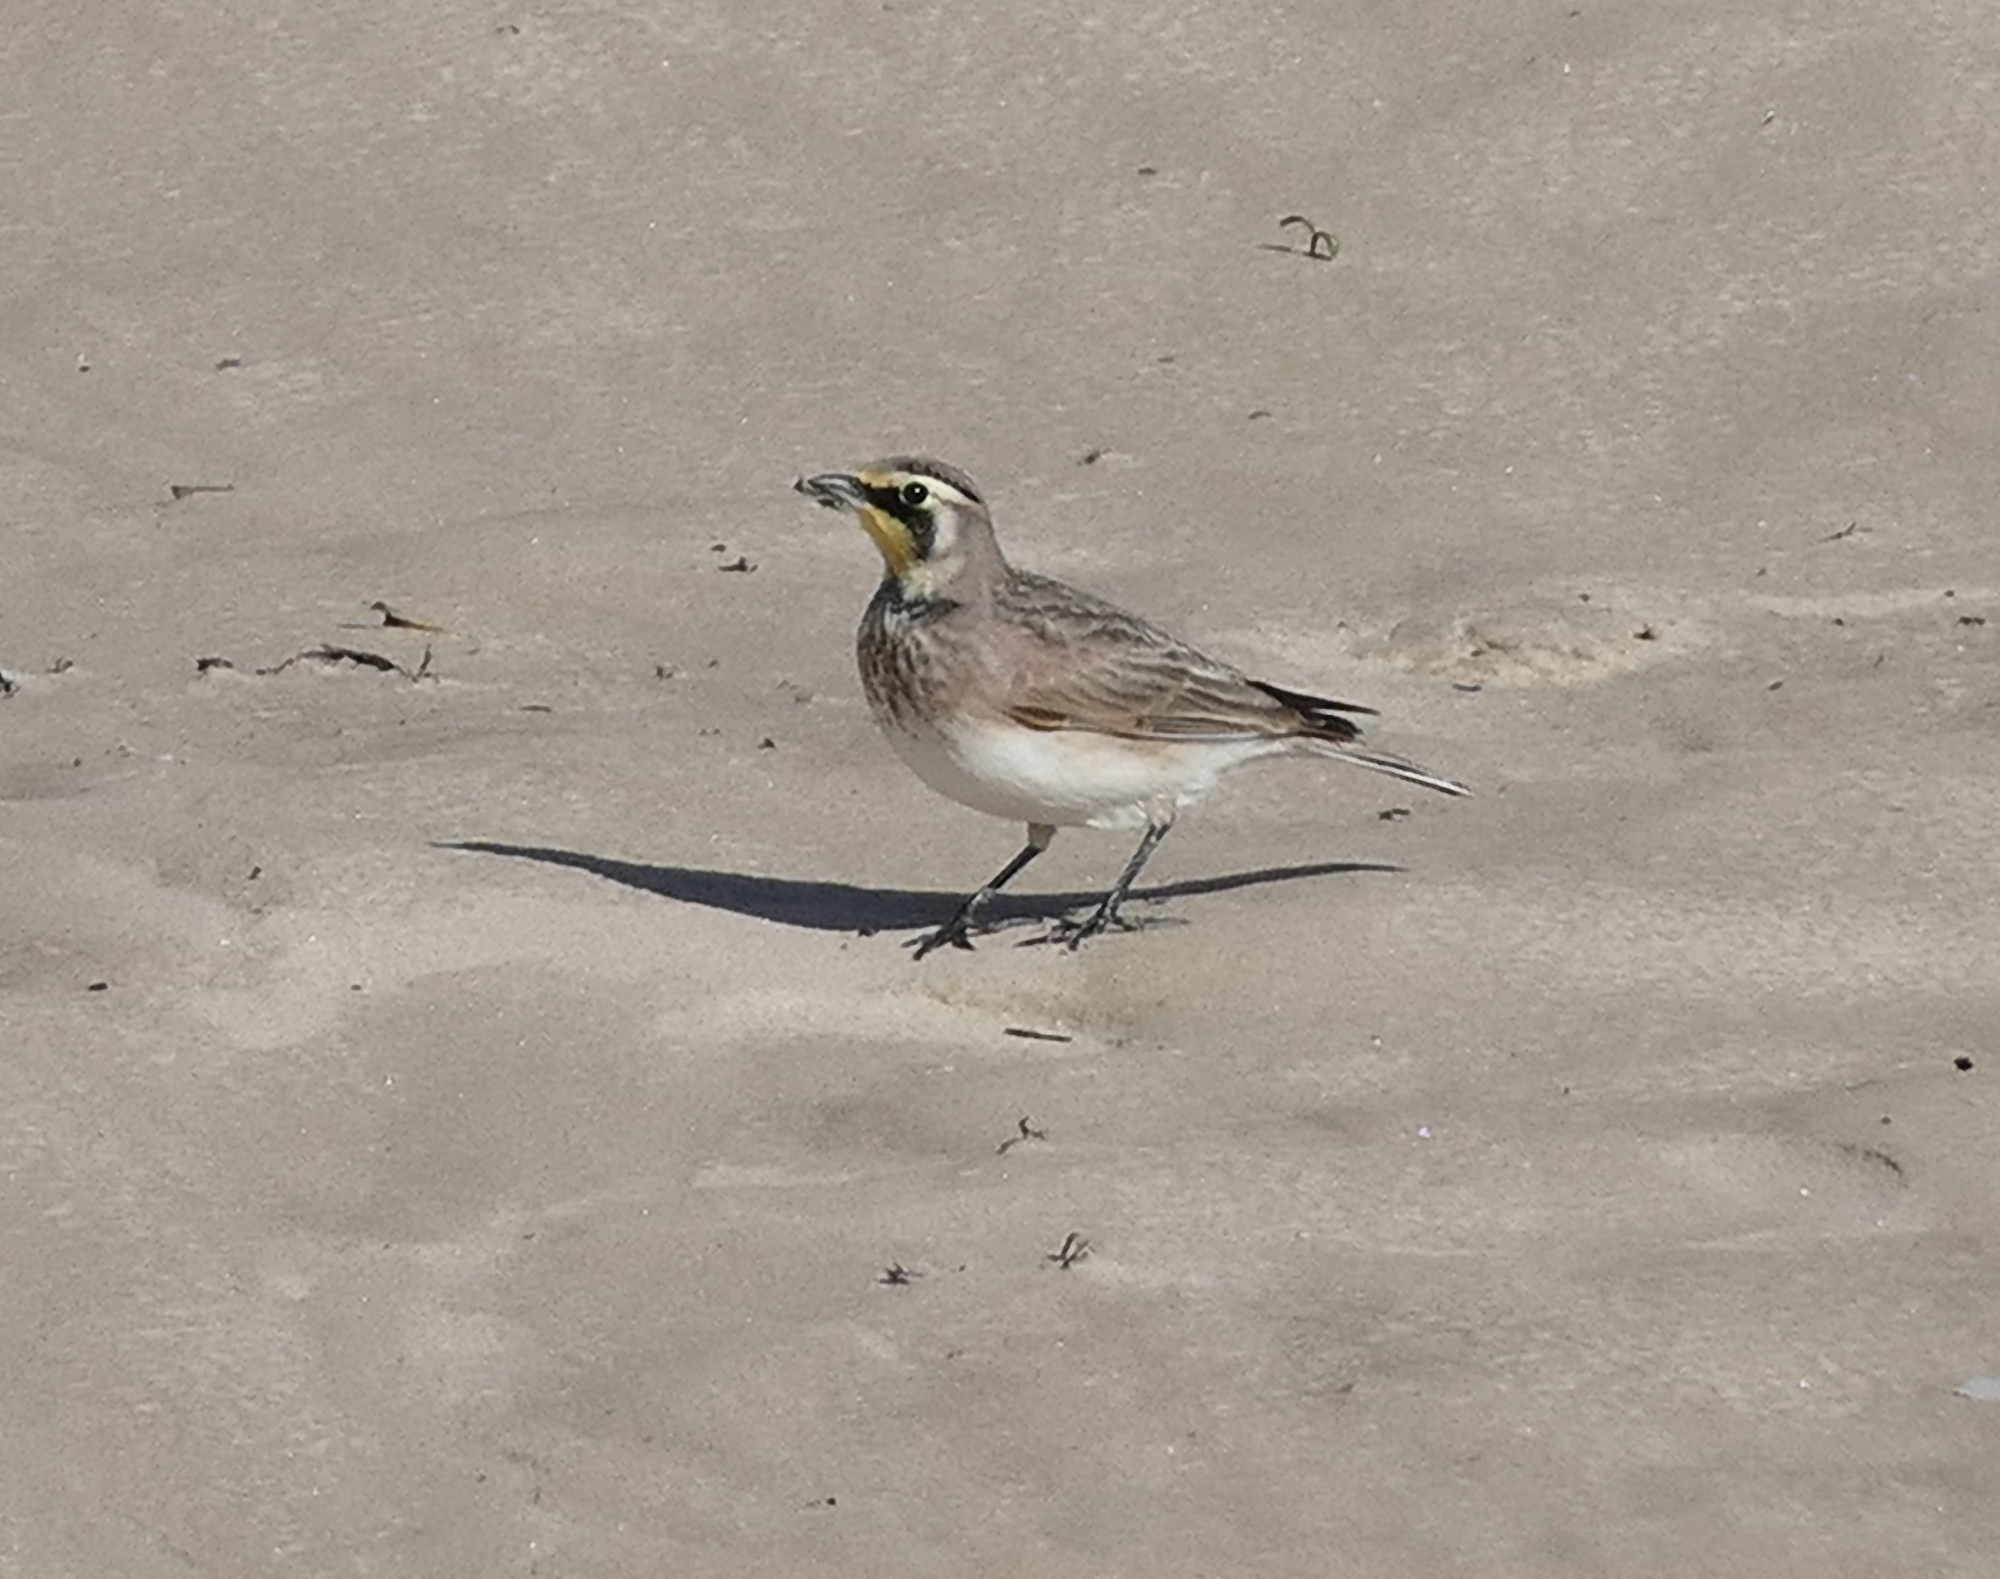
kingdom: Animalia
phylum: Chordata
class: Aves
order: Passeriformes
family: Alaudidae
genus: Eremophila
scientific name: Eremophila alpestris
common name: Horned lark
